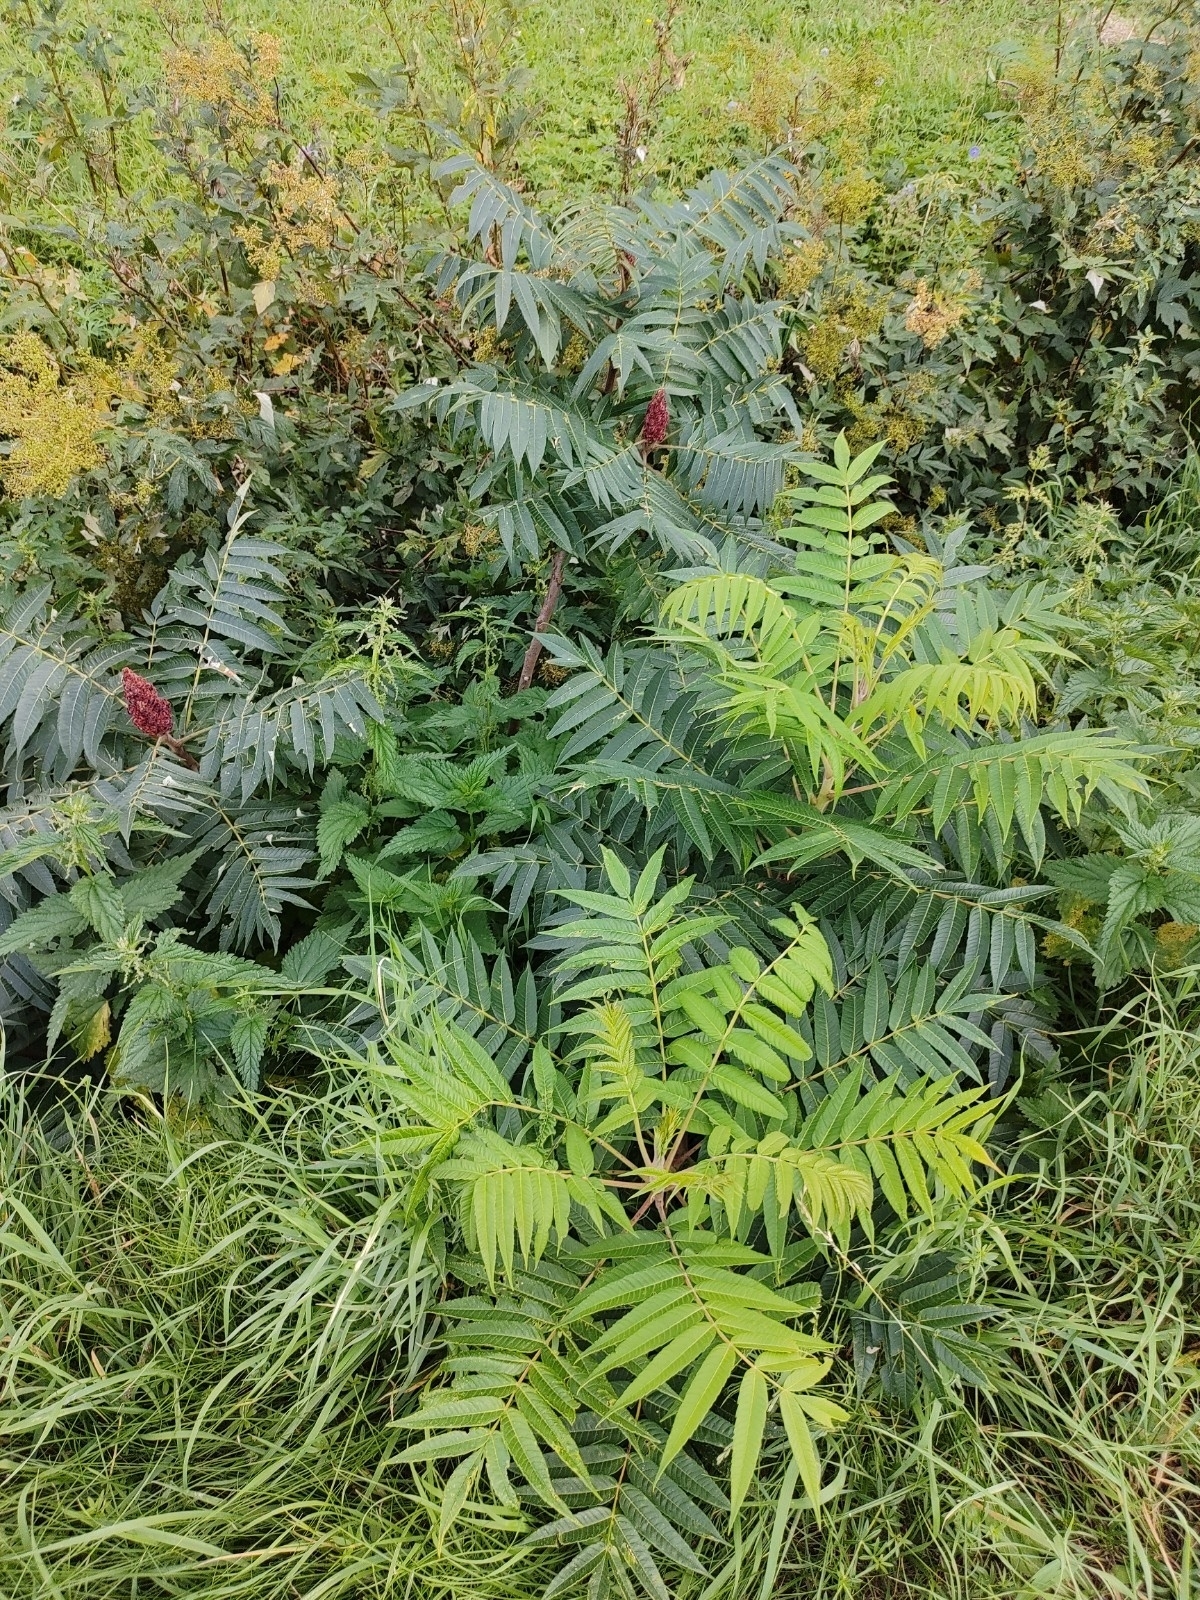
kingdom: Plantae
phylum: Tracheophyta
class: Magnoliopsida
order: Sapindales
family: Anacardiaceae
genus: Rhus
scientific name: Rhus typhina
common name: Staghorn sumac
